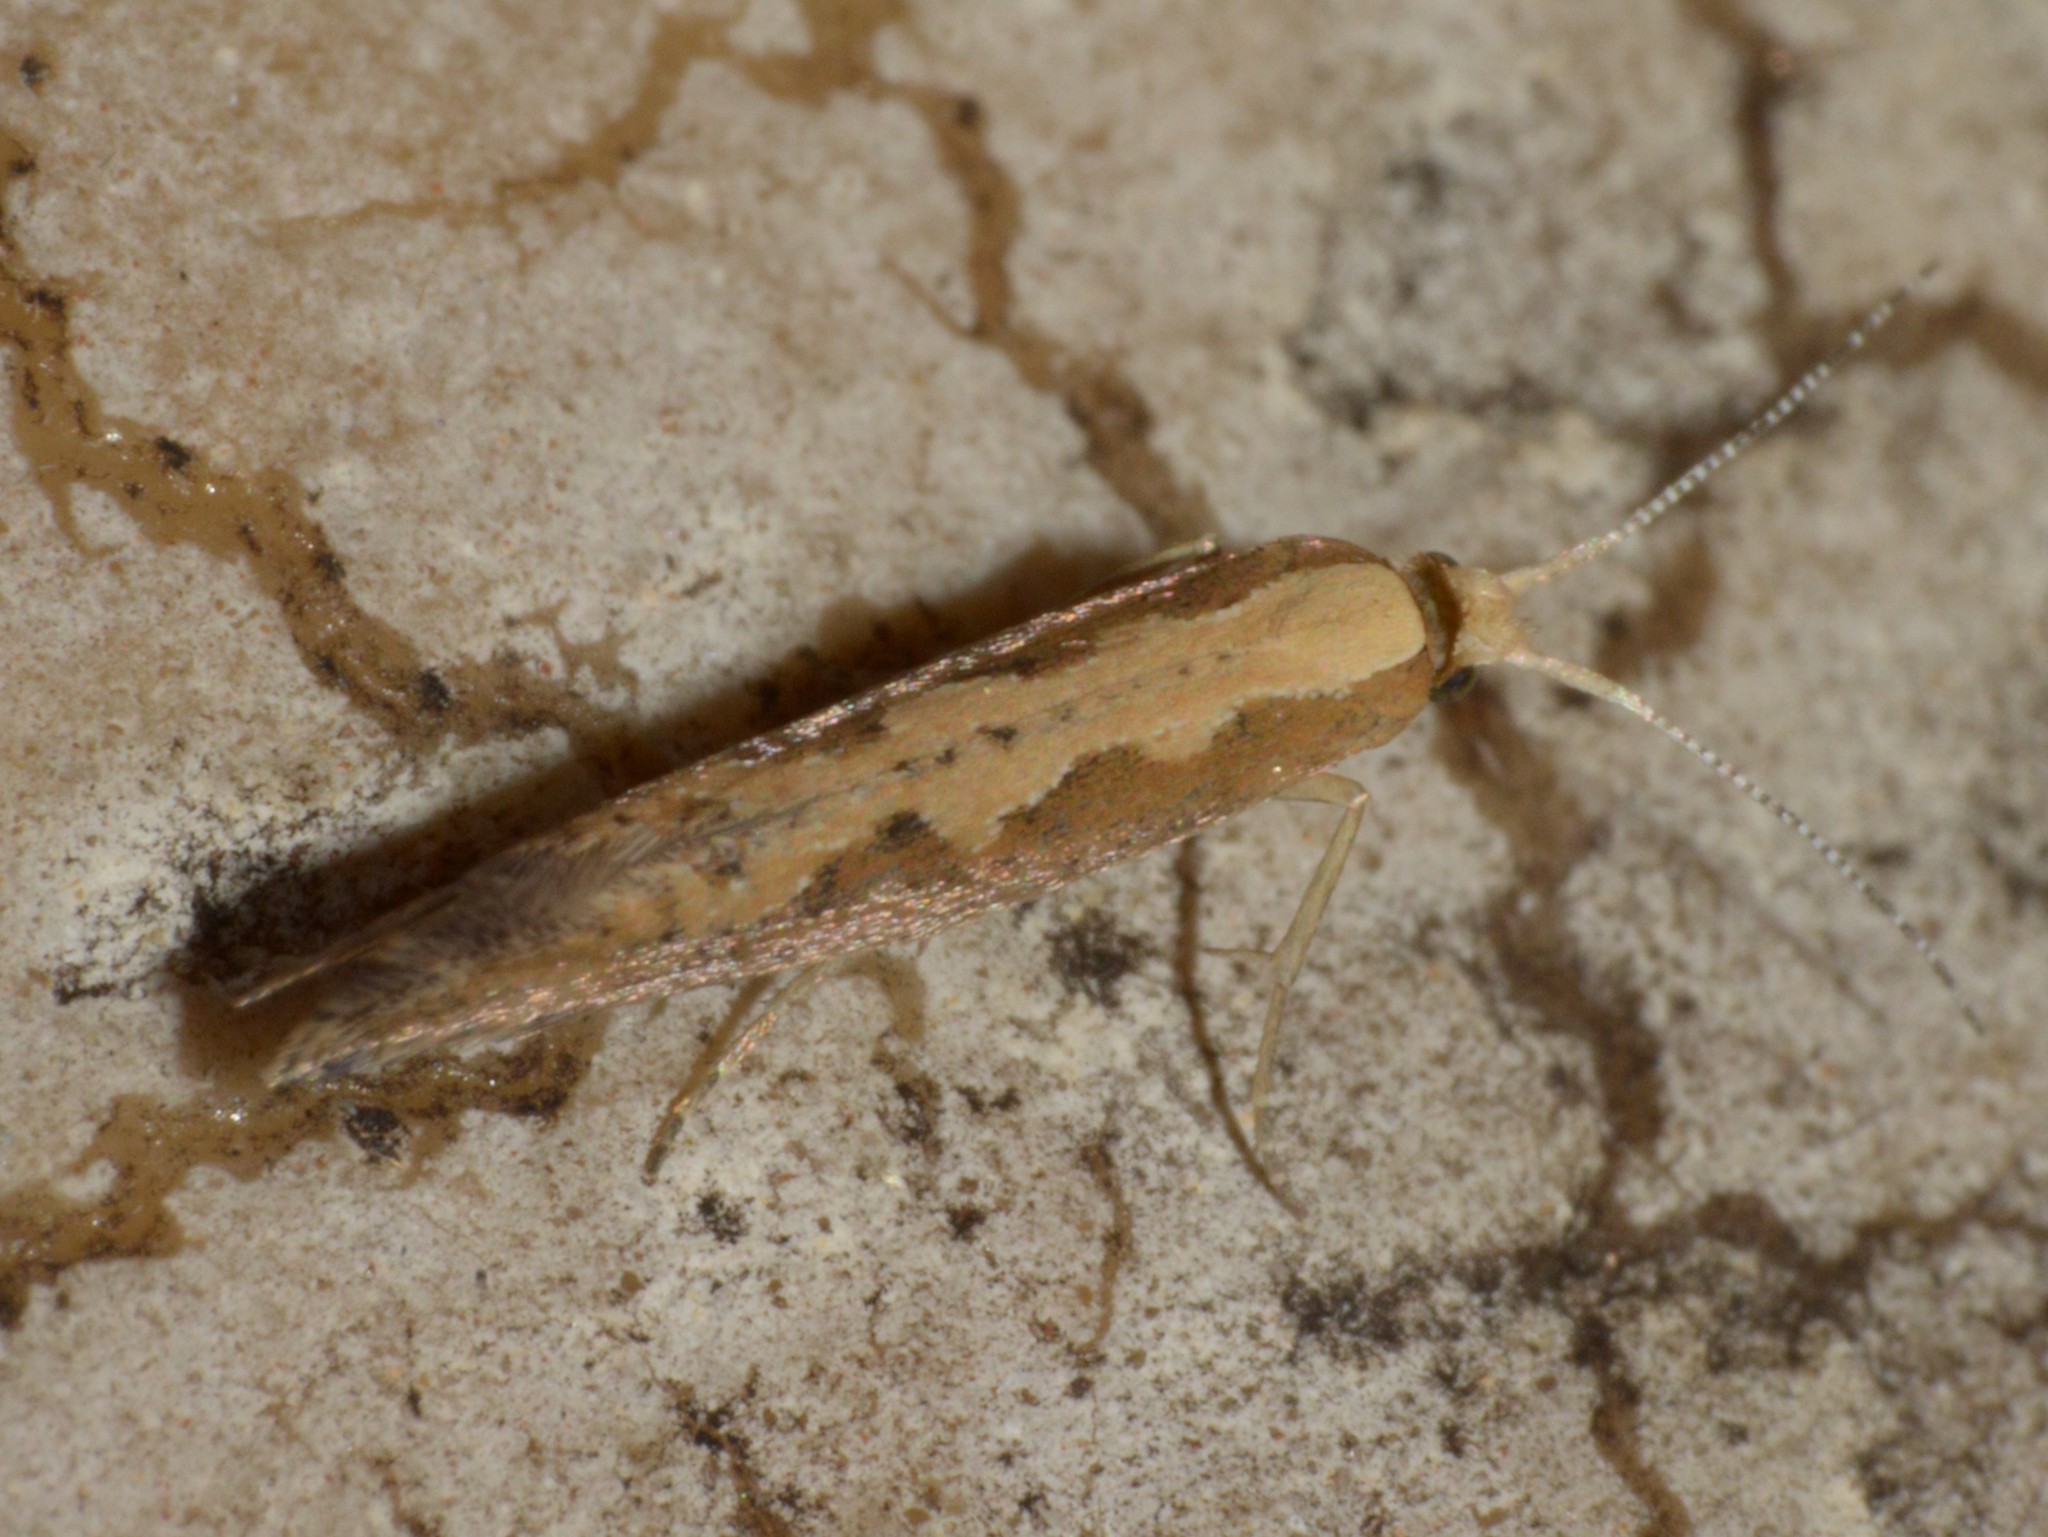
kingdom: Animalia
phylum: Arthropoda
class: Insecta
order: Lepidoptera
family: Plutellidae
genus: Plutella
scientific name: Plutella xylostella
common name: Diamond-back moth
